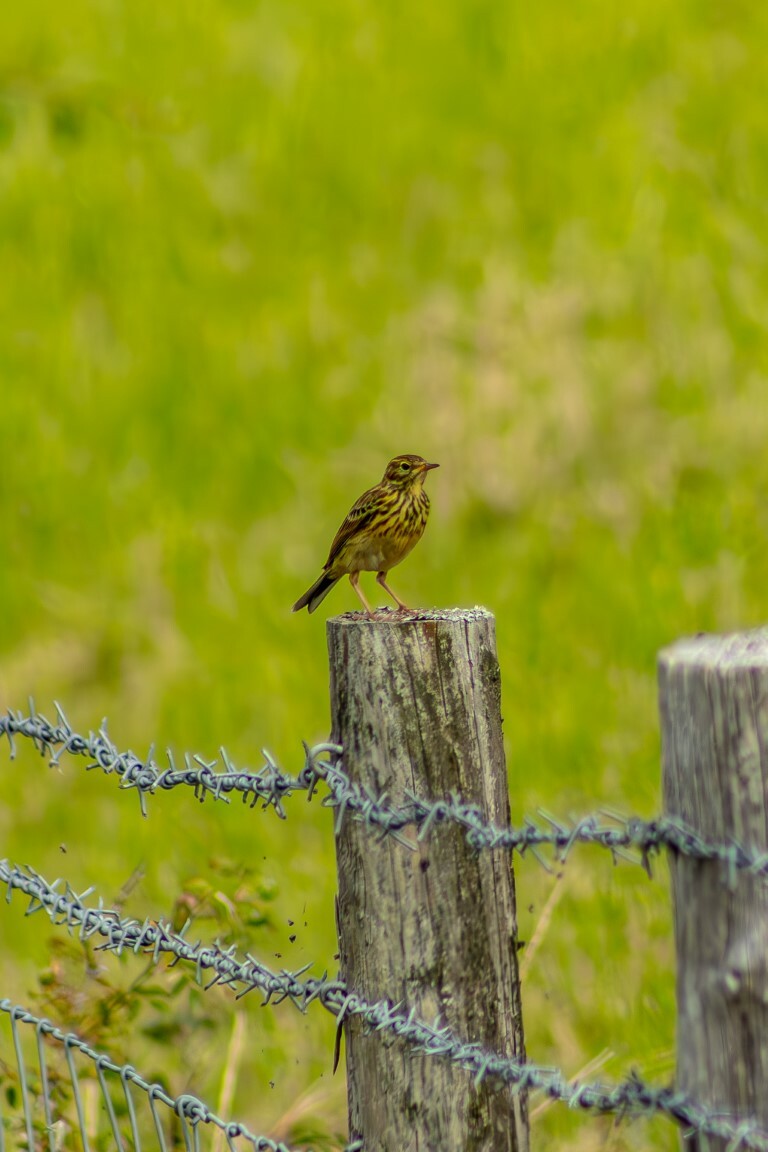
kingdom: Animalia
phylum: Chordata
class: Aves
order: Passeriformes
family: Motacillidae
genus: Anthus
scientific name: Anthus pratensis
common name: Meadow pipit
